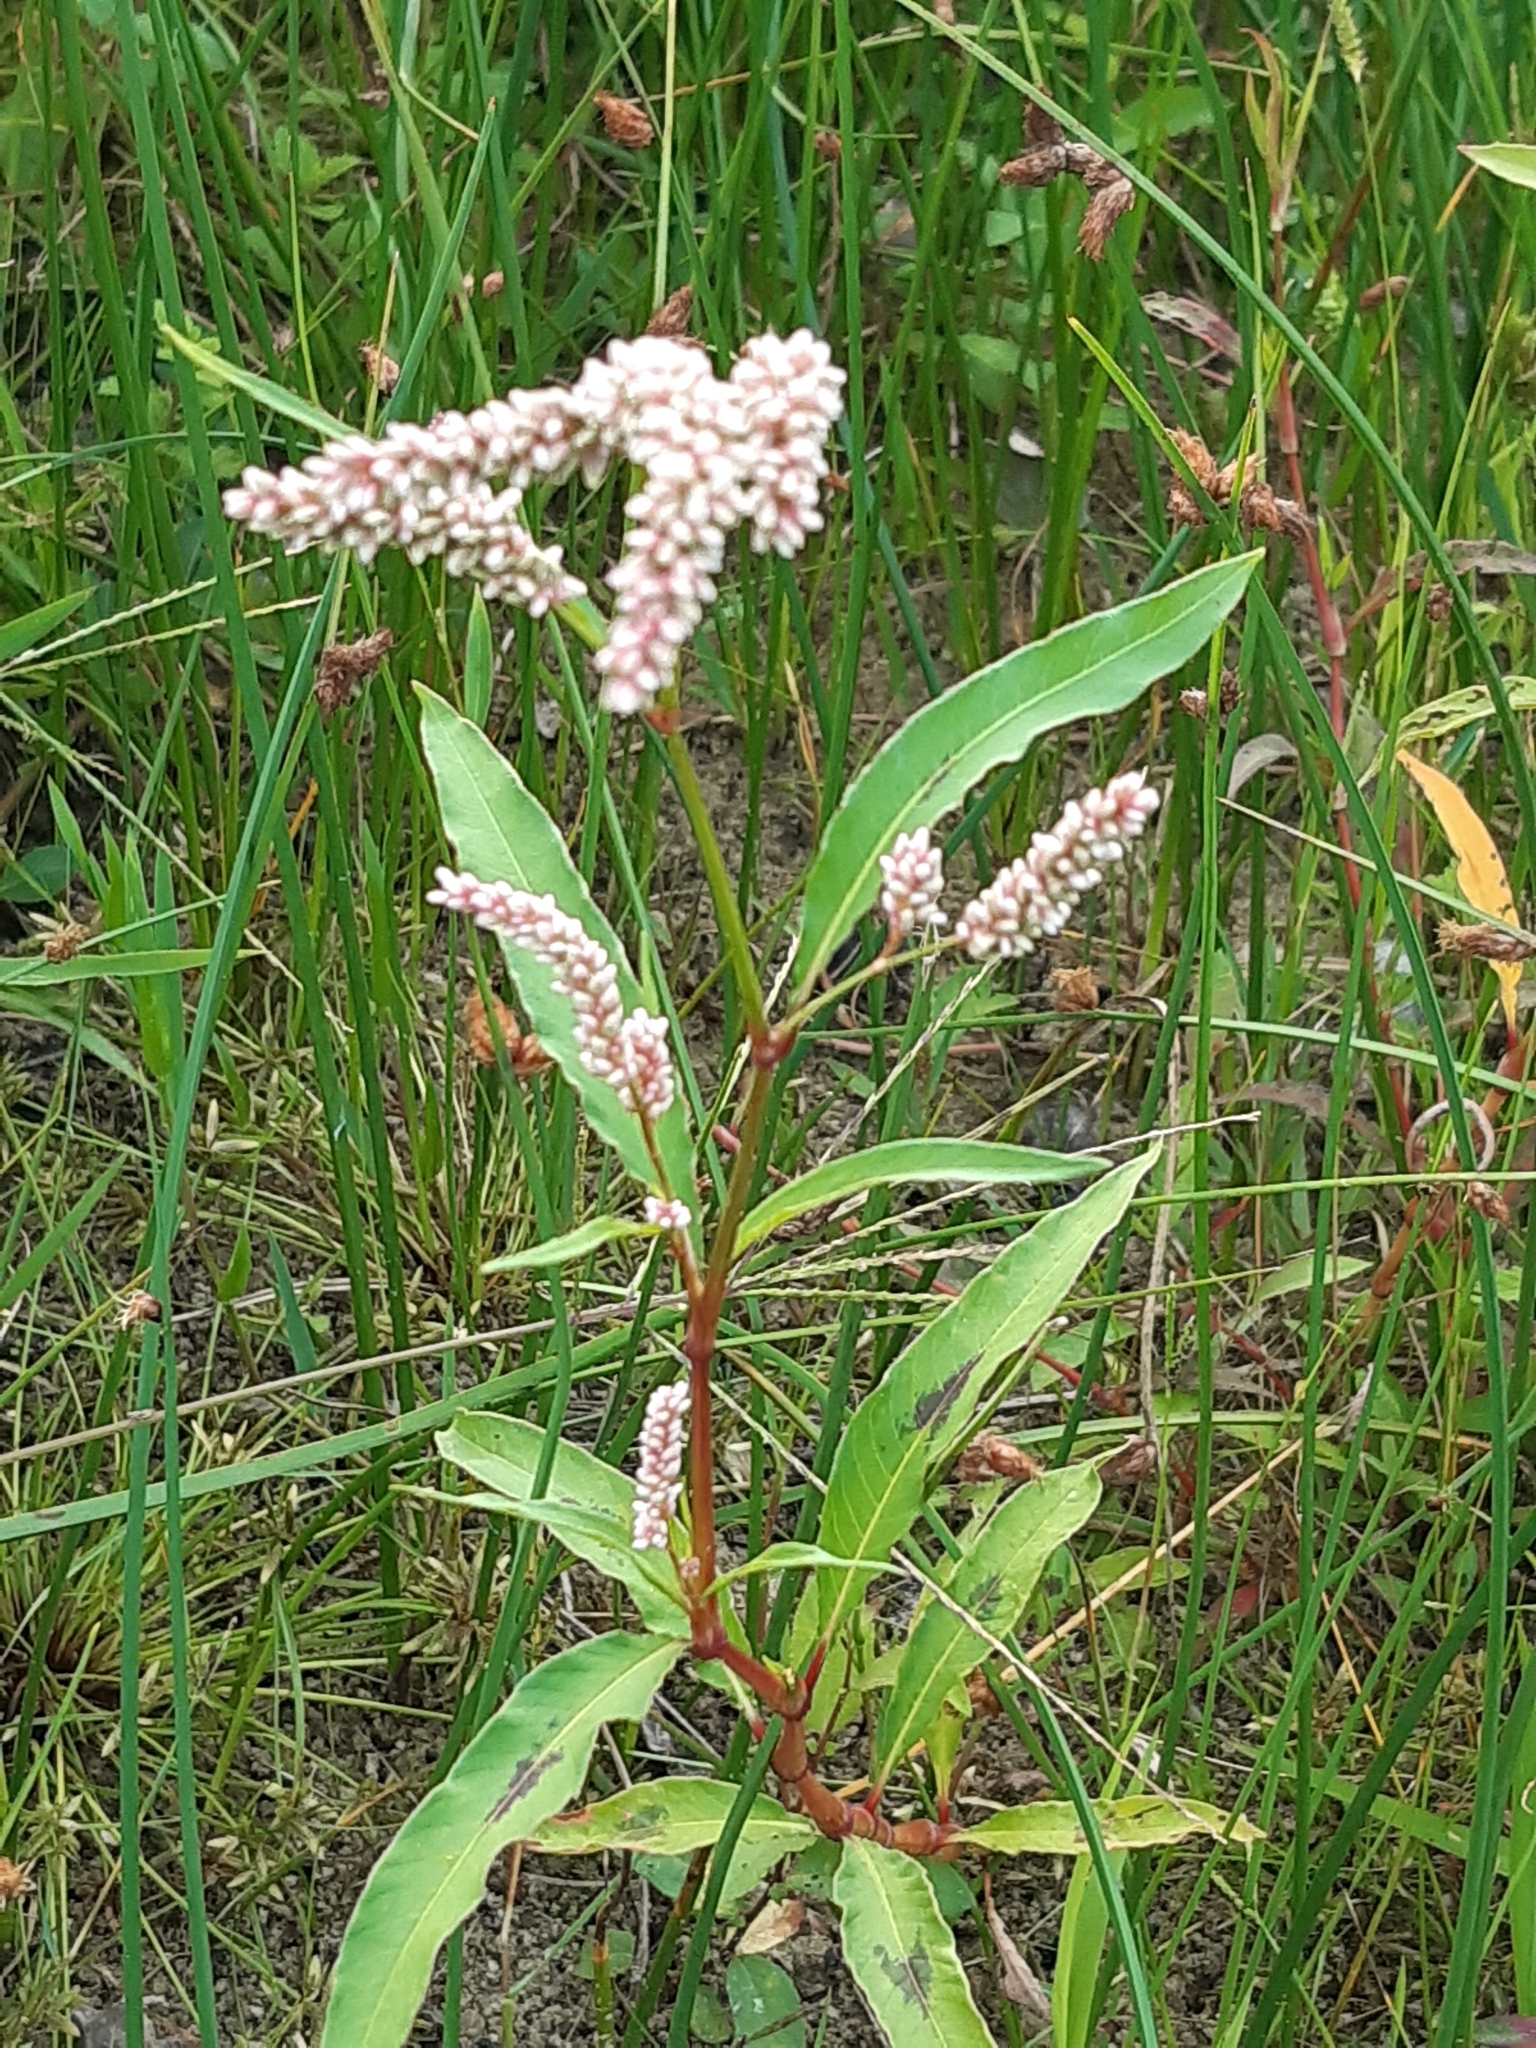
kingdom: Plantae
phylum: Tracheophyta
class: Magnoliopsida
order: Caryophyllales
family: Polygonaceae
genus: Persicaria
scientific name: Persicaria lapathifolia
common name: Curlytop knotweed
